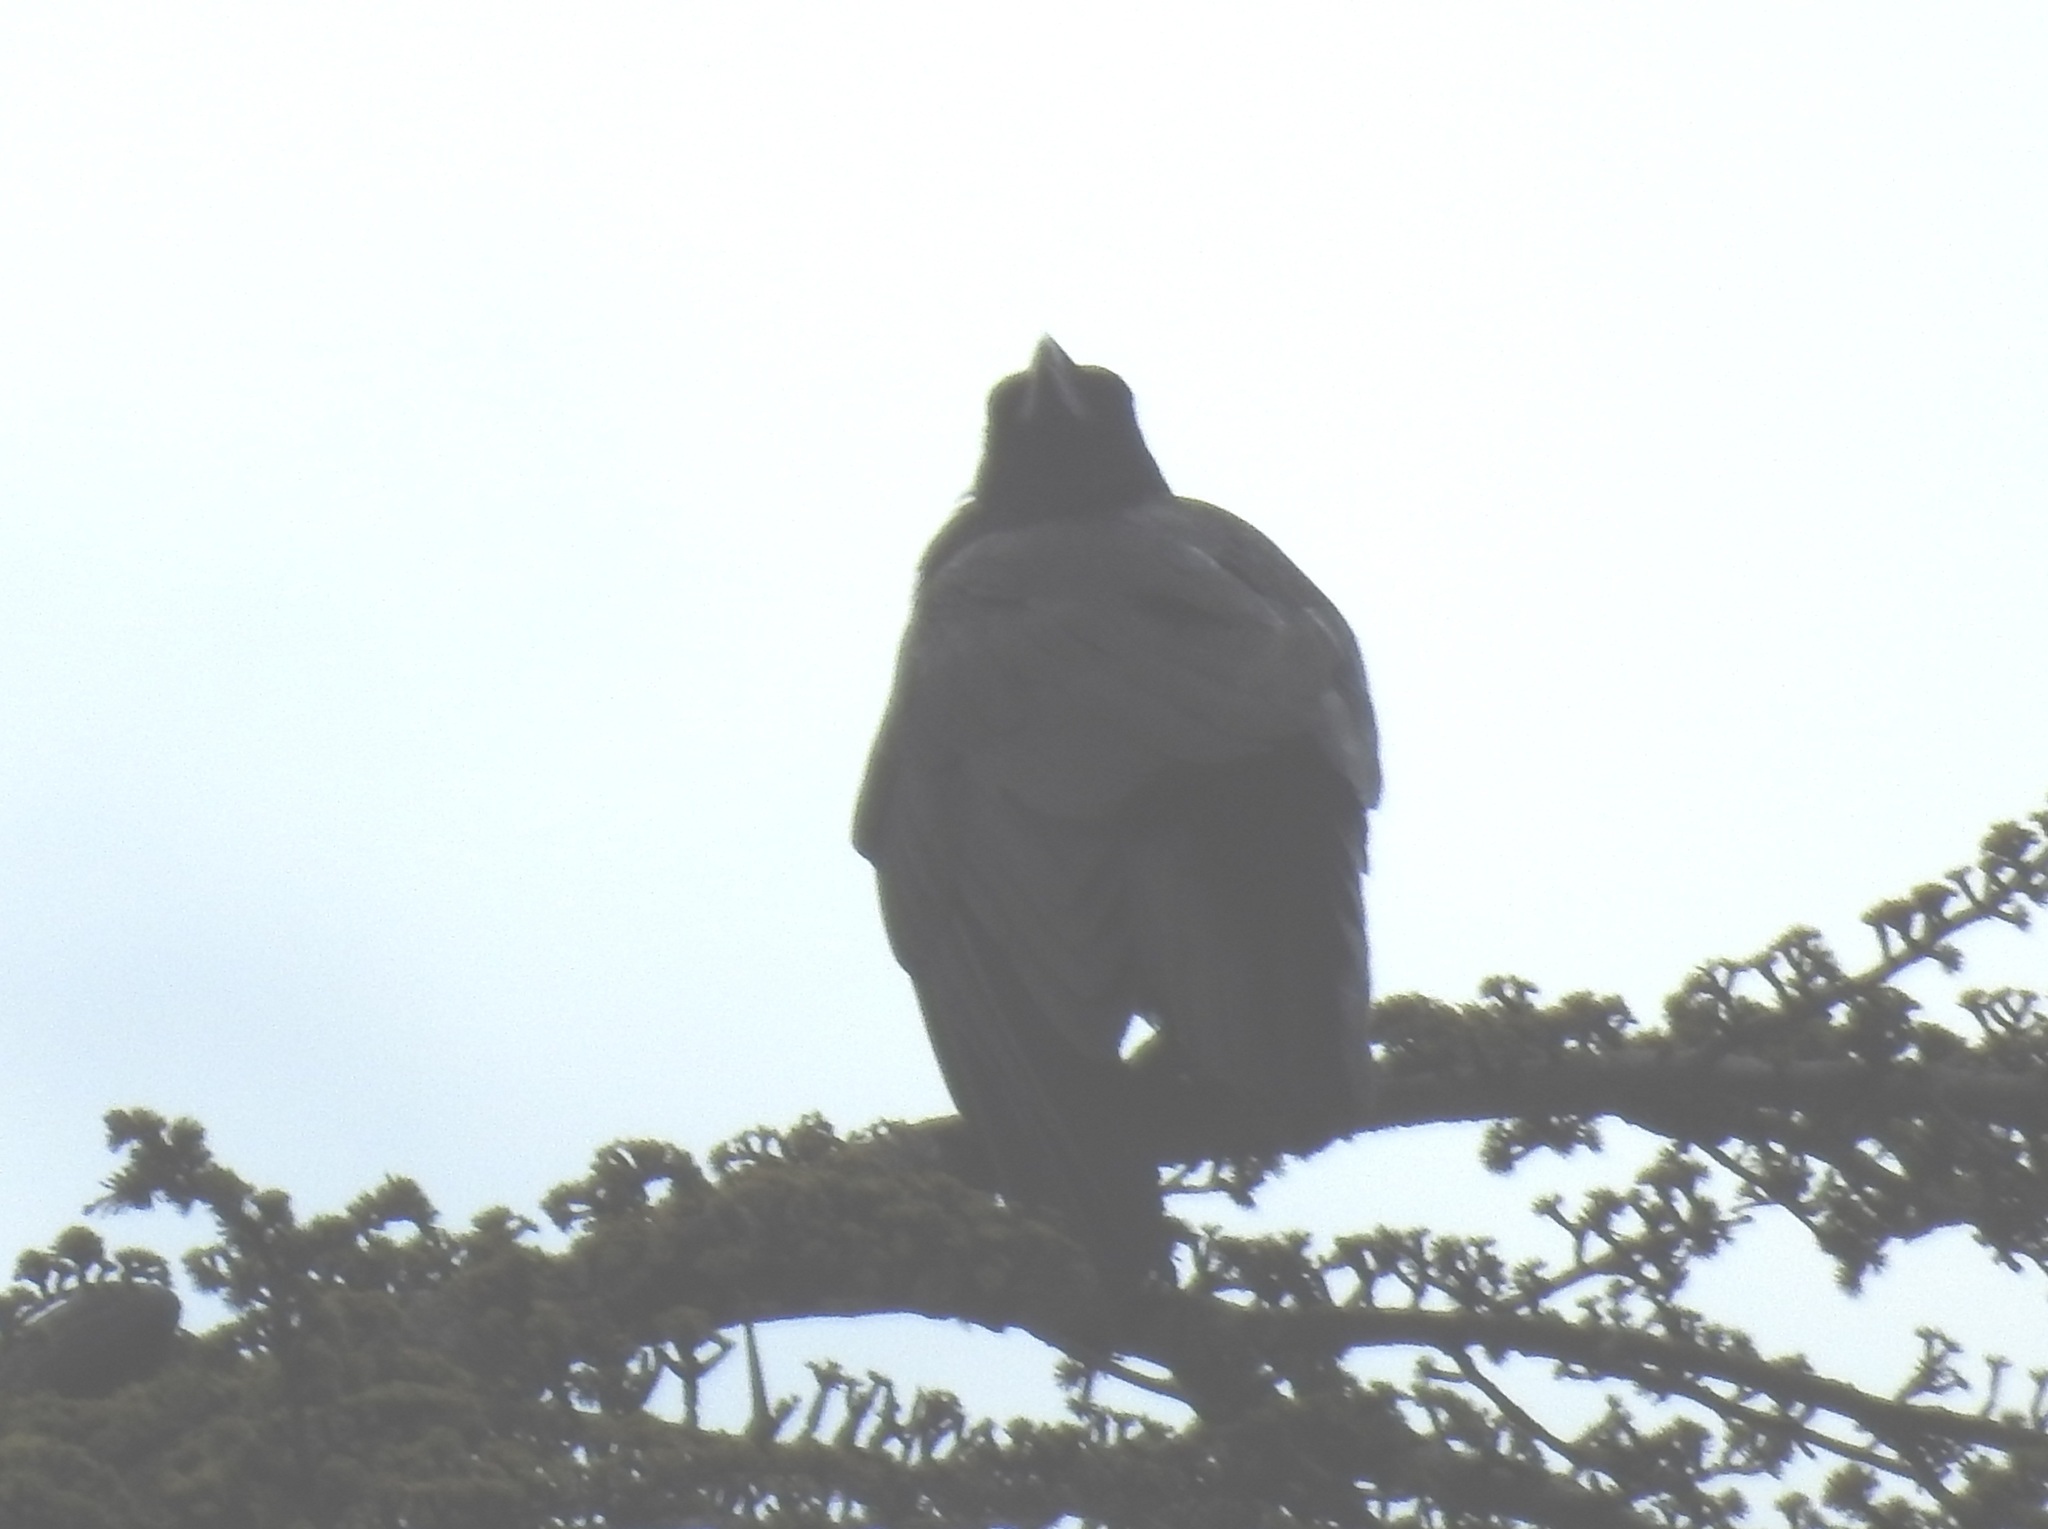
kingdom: Animalia
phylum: Chordata
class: Aves
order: Passeriformes
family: Corvidae
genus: Corvus
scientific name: Corvus corax
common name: Common raven
